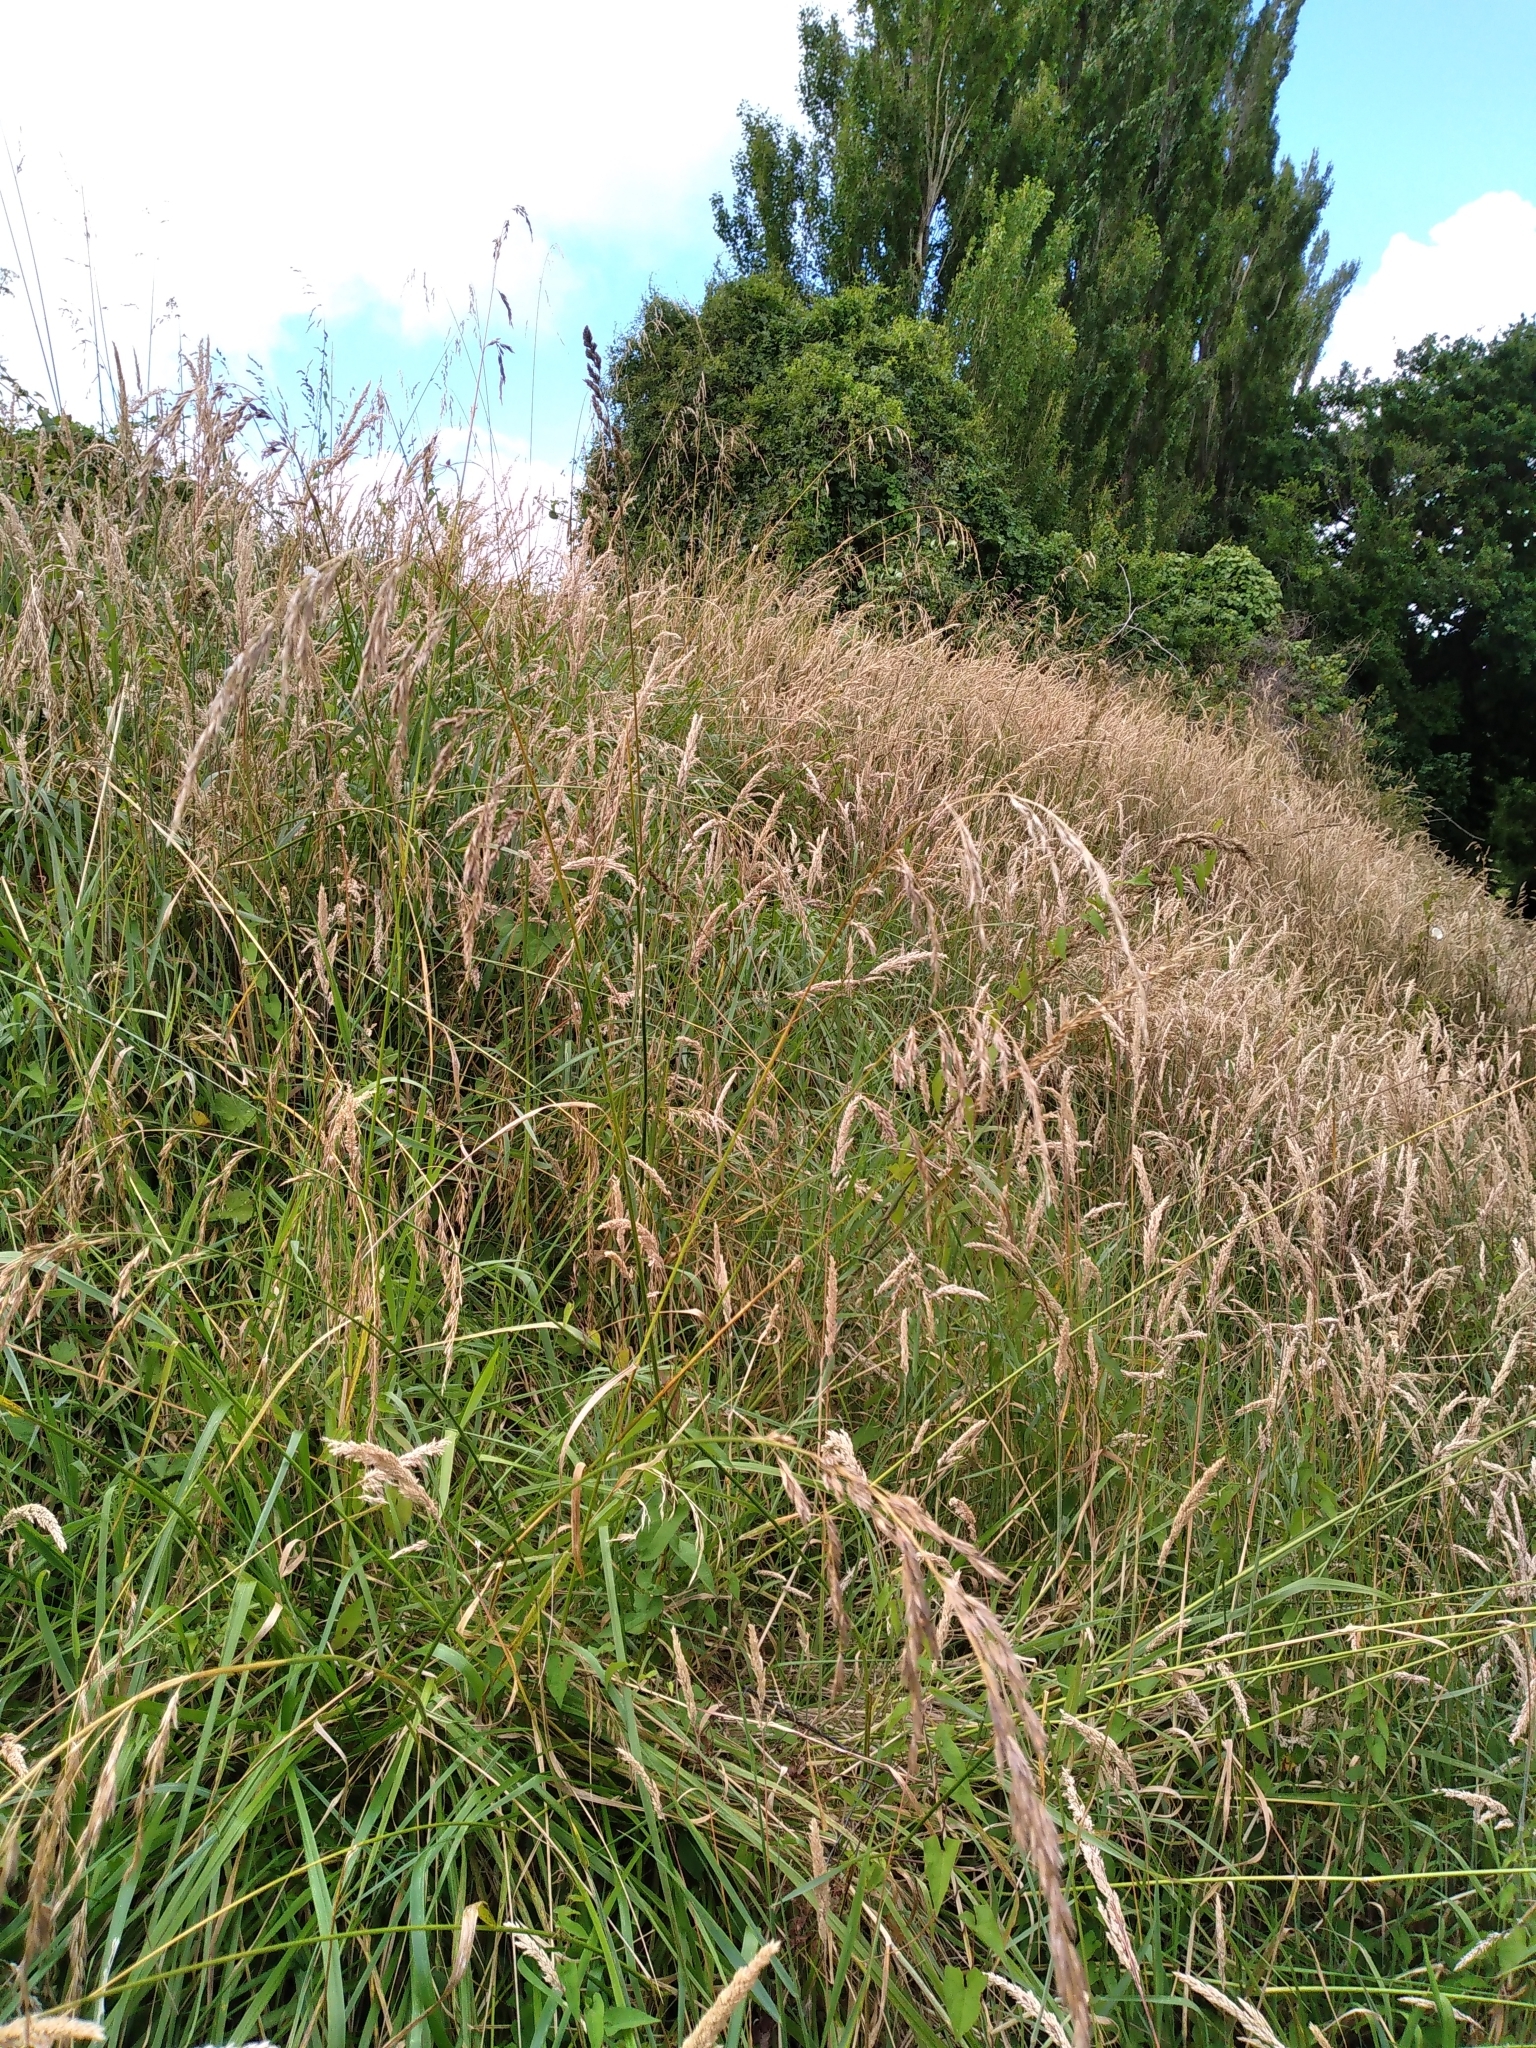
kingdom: Plantae
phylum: Tracheophyta
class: Liliopsida
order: Poales
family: Poaceae
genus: Lolium
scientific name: Lolium arundinaceum
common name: Reed fescue
